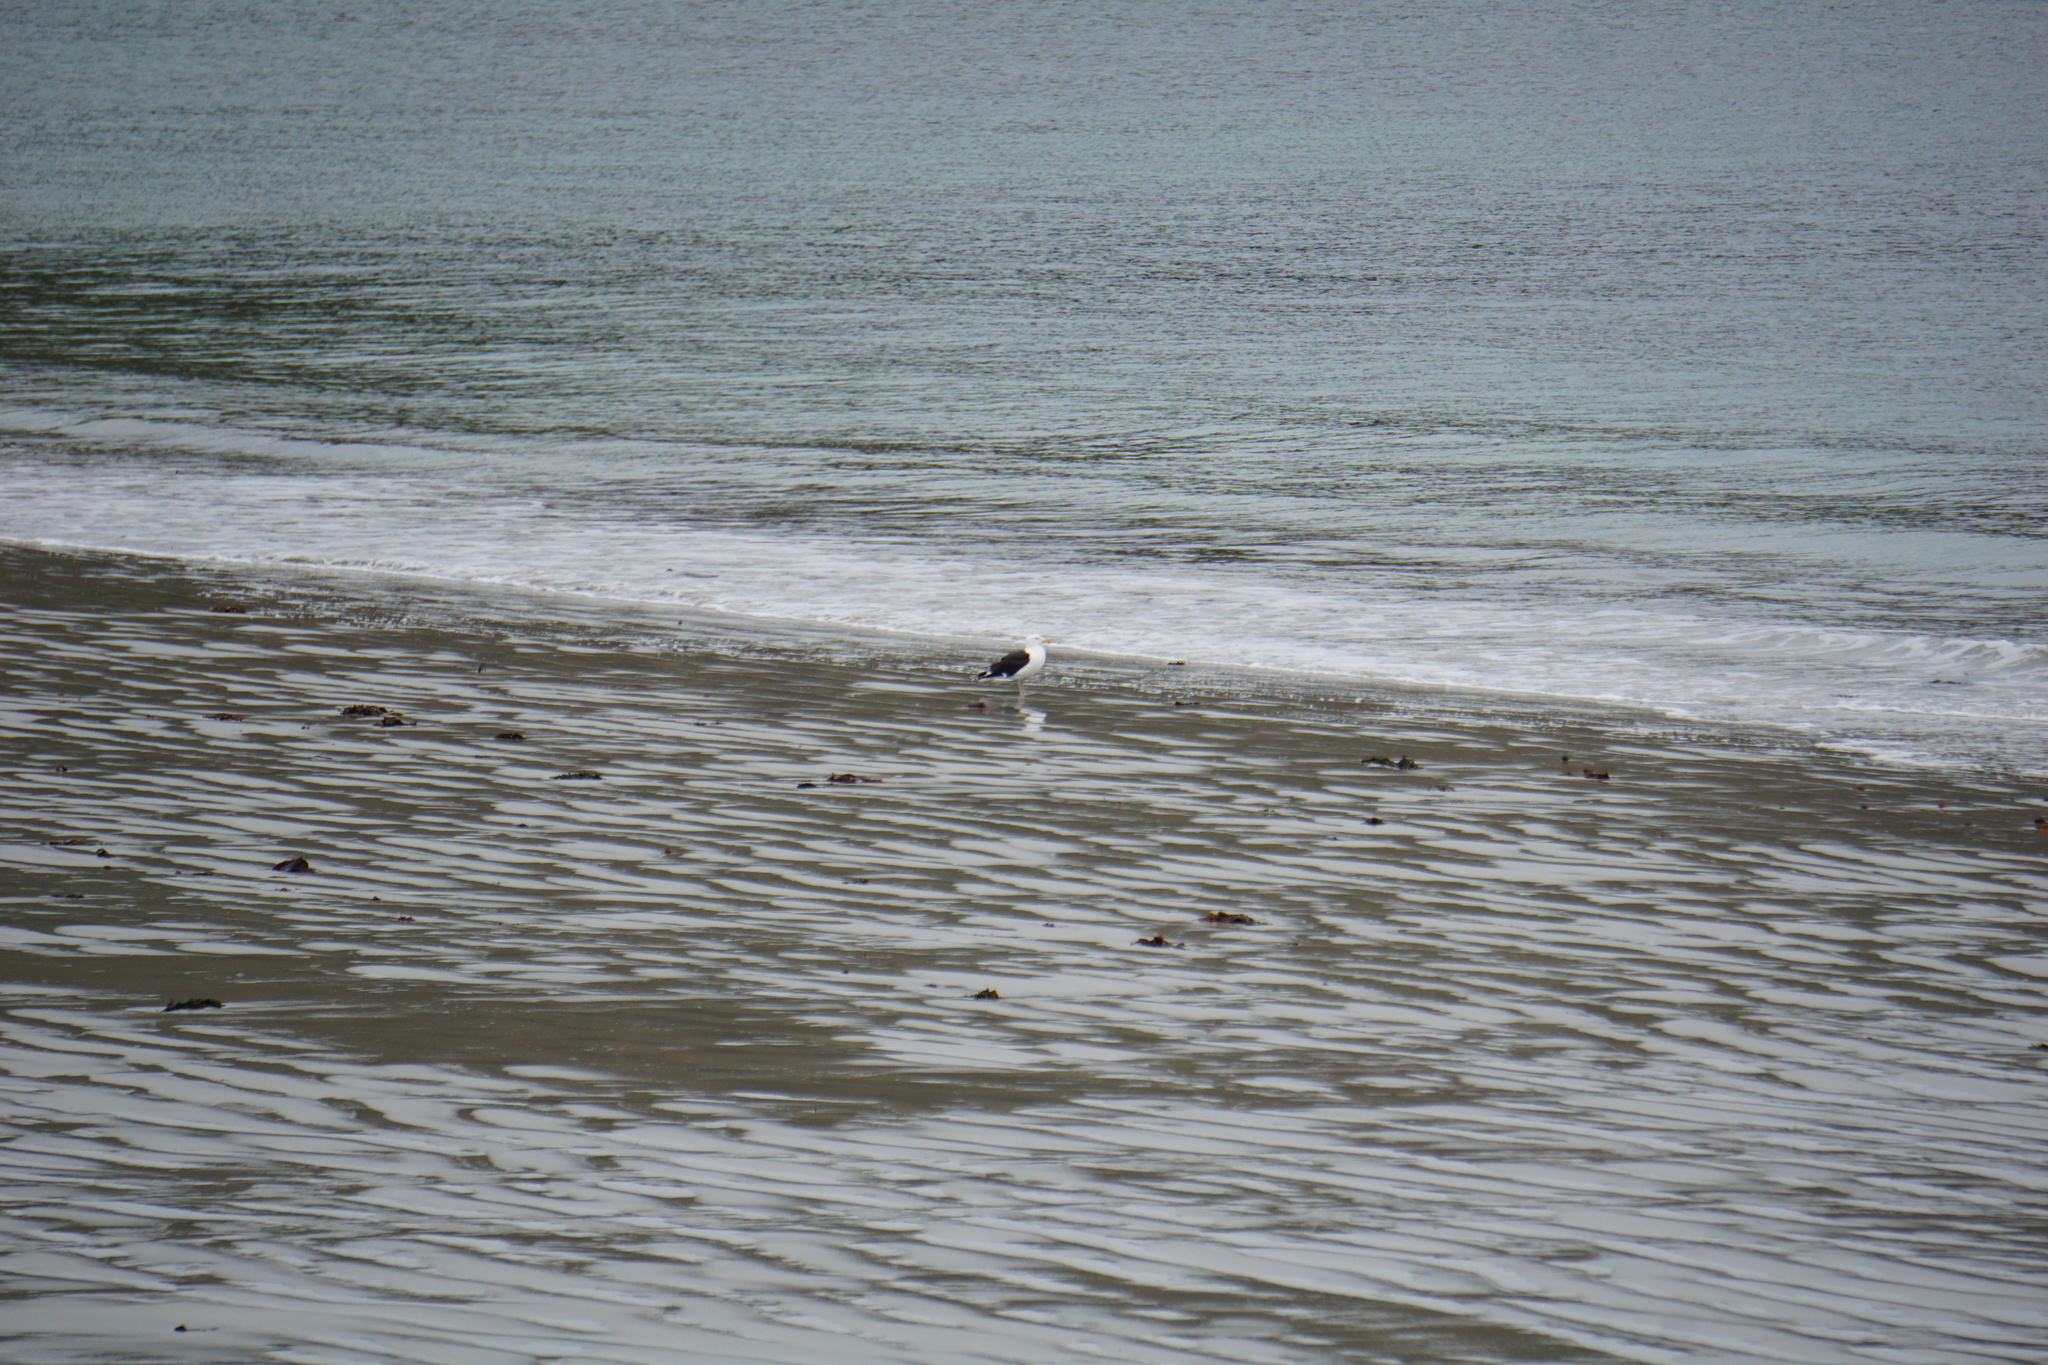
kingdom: Animalia
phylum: Chordata
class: Aves
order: Charadriiformes
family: Laridae
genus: Larus
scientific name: Larus marinus
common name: Great black-backed gull
